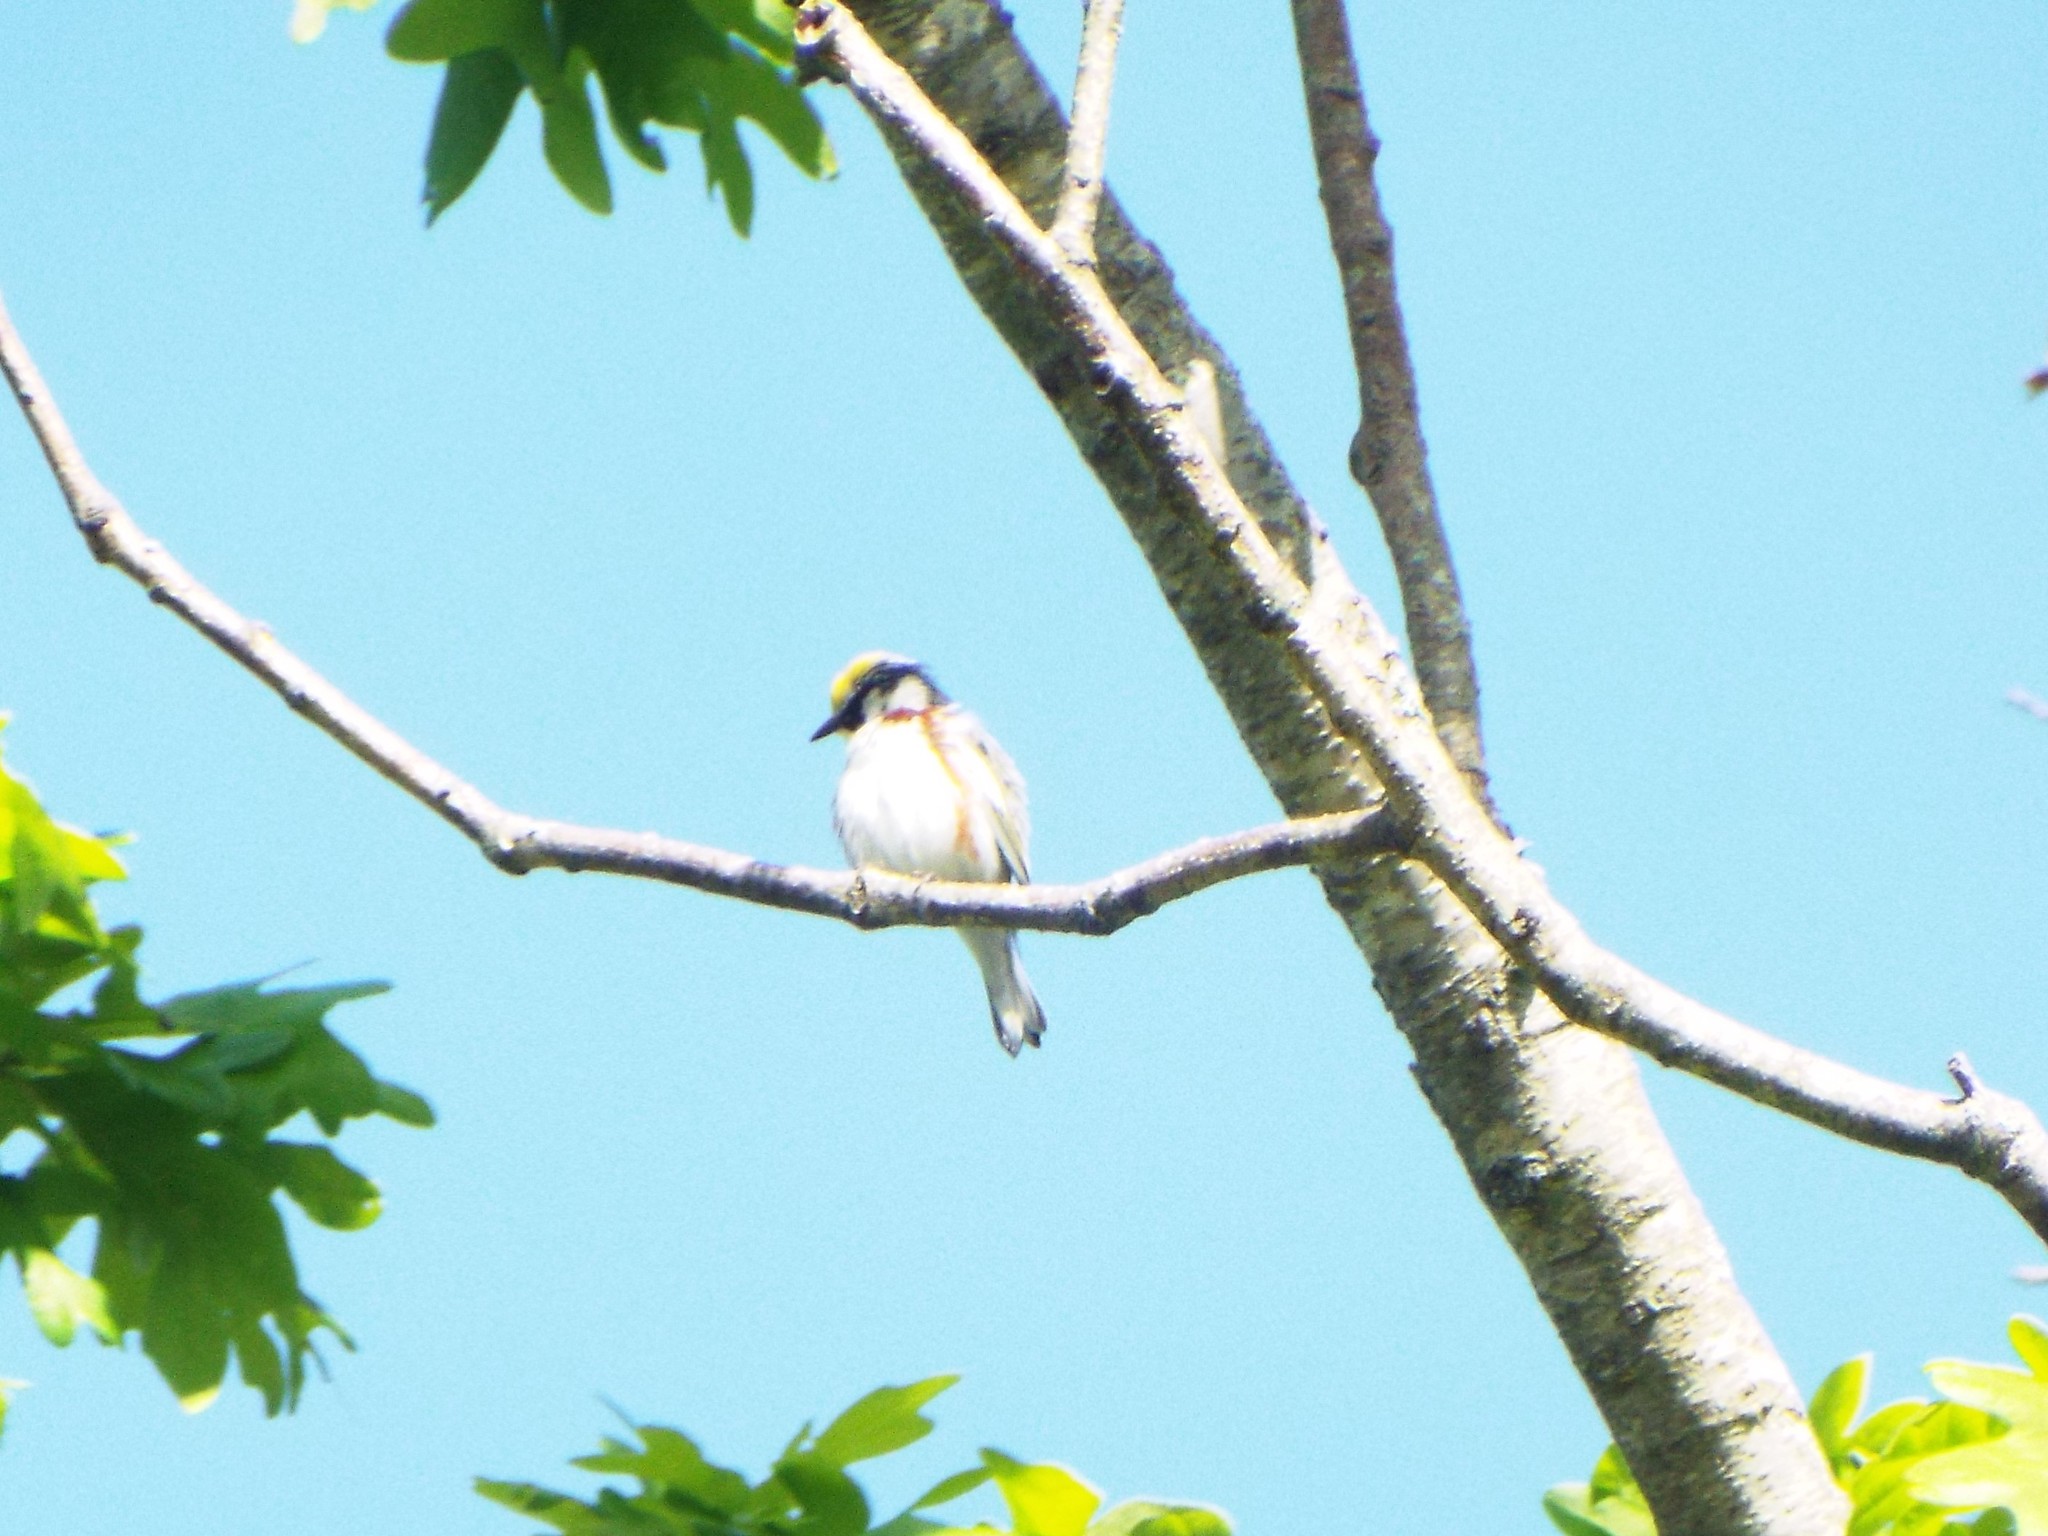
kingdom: Animalia
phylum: Chordata
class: Aves
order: Passeriformes
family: Parulidae
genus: Setophaga
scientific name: Setophaga pensylvanica
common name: Chestnut-sided warbler
